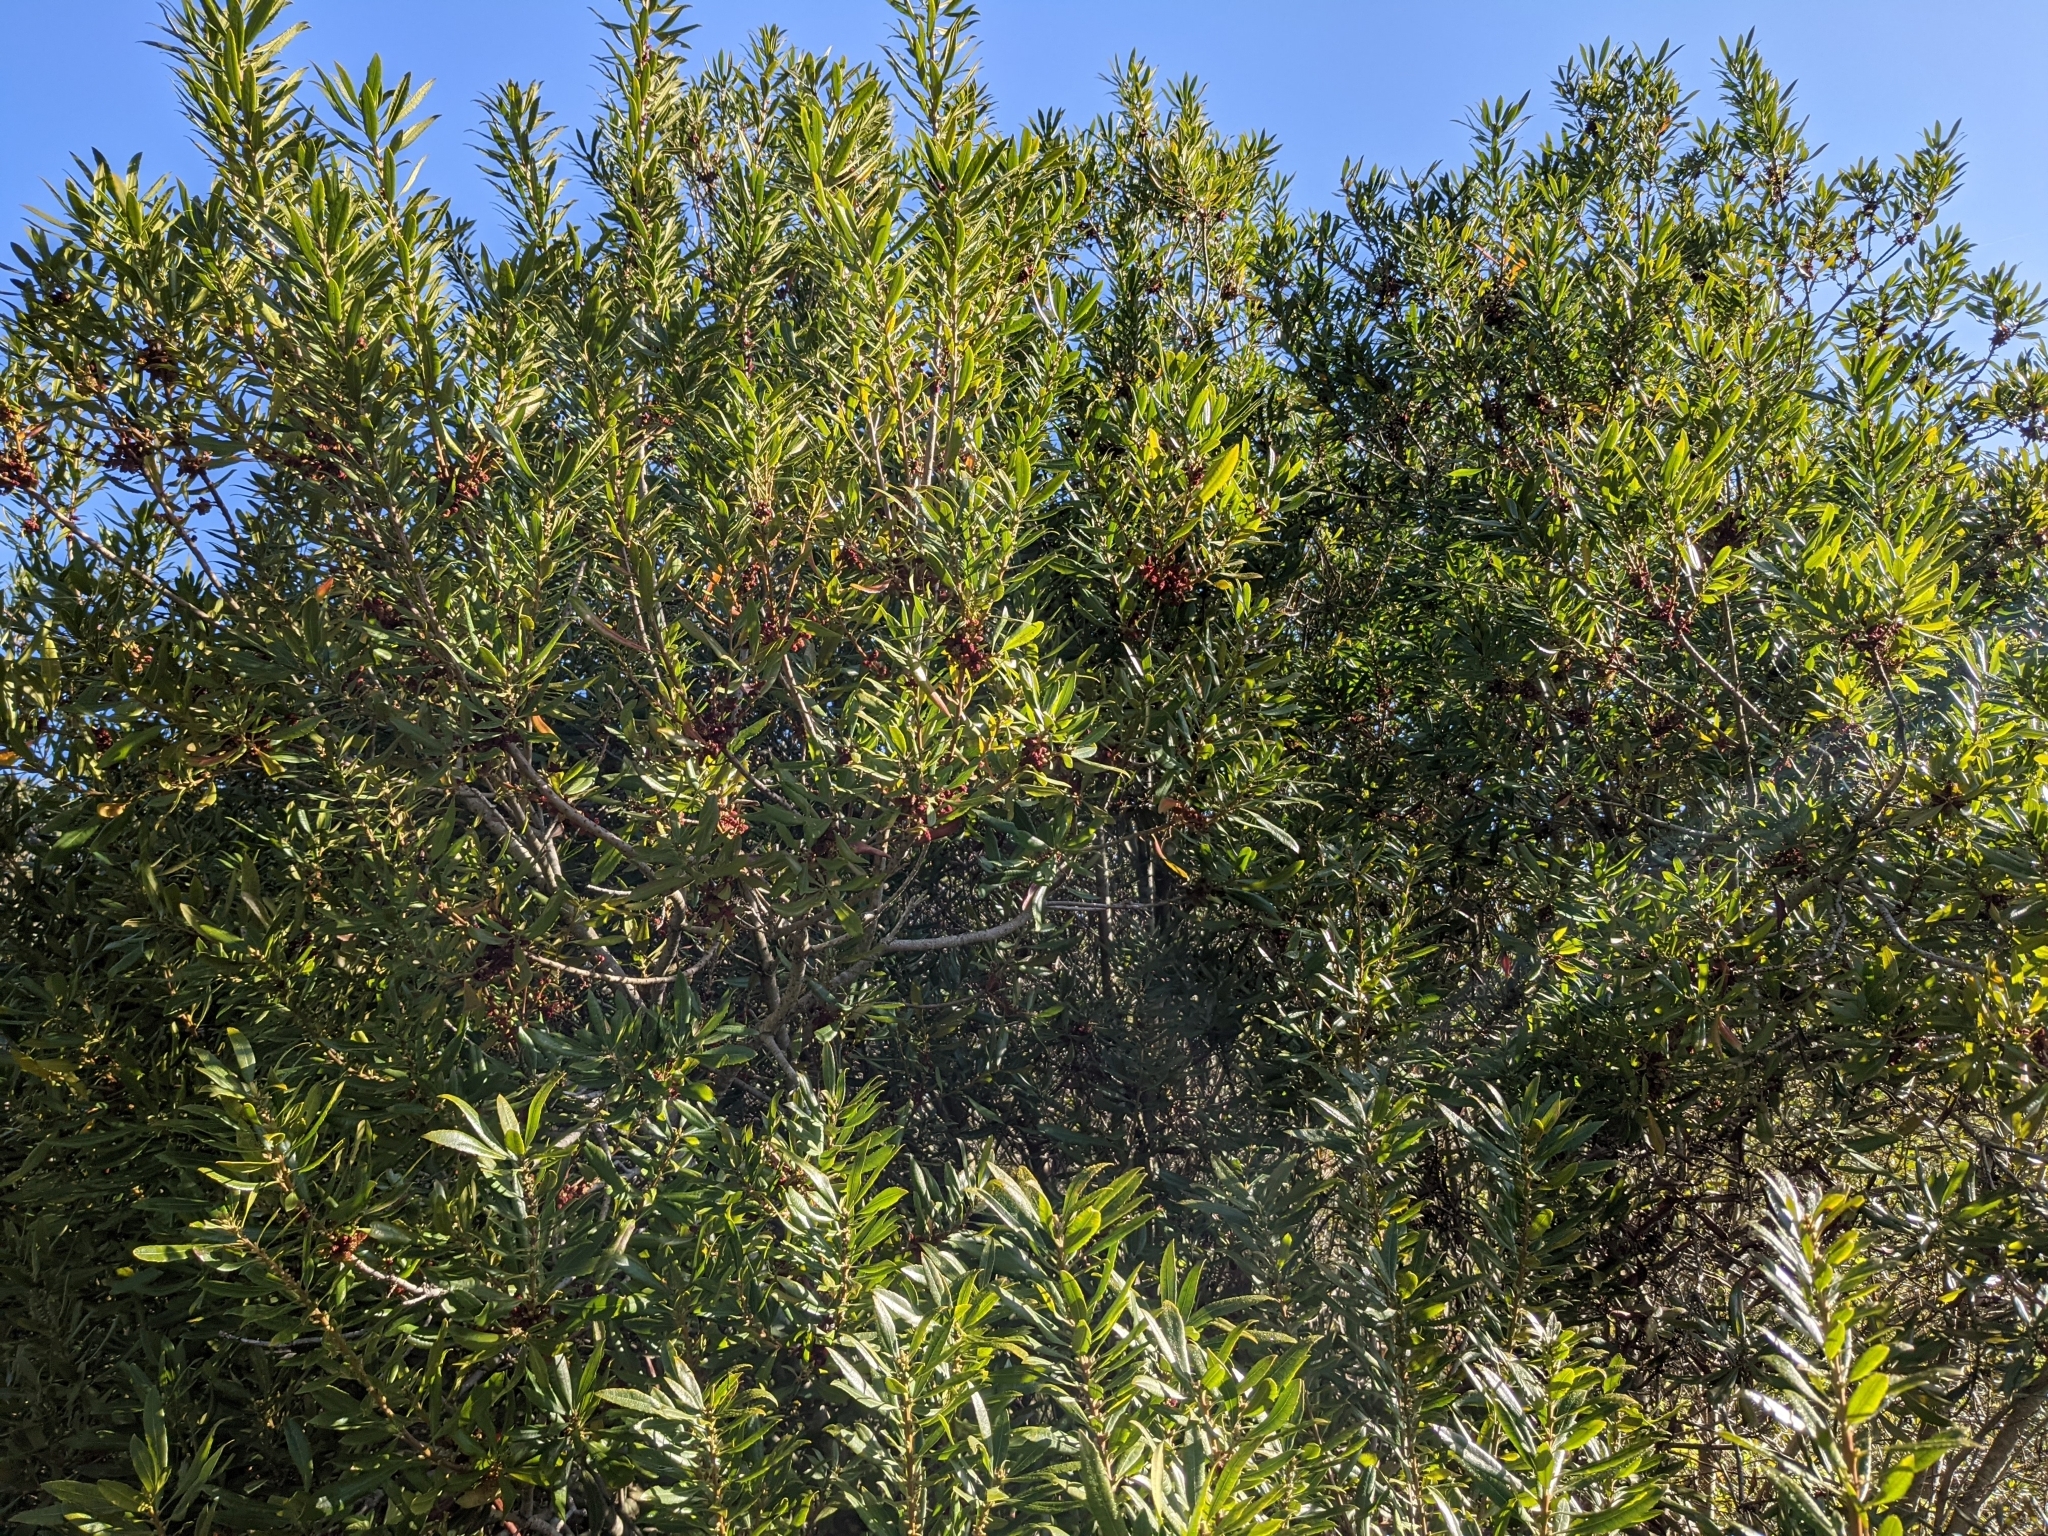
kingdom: Plantae
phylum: Tracheophyta
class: Magnoliopsida
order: Fagales
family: Myricaceae
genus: Morella
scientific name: Morella californica
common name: California wax-myrtle
